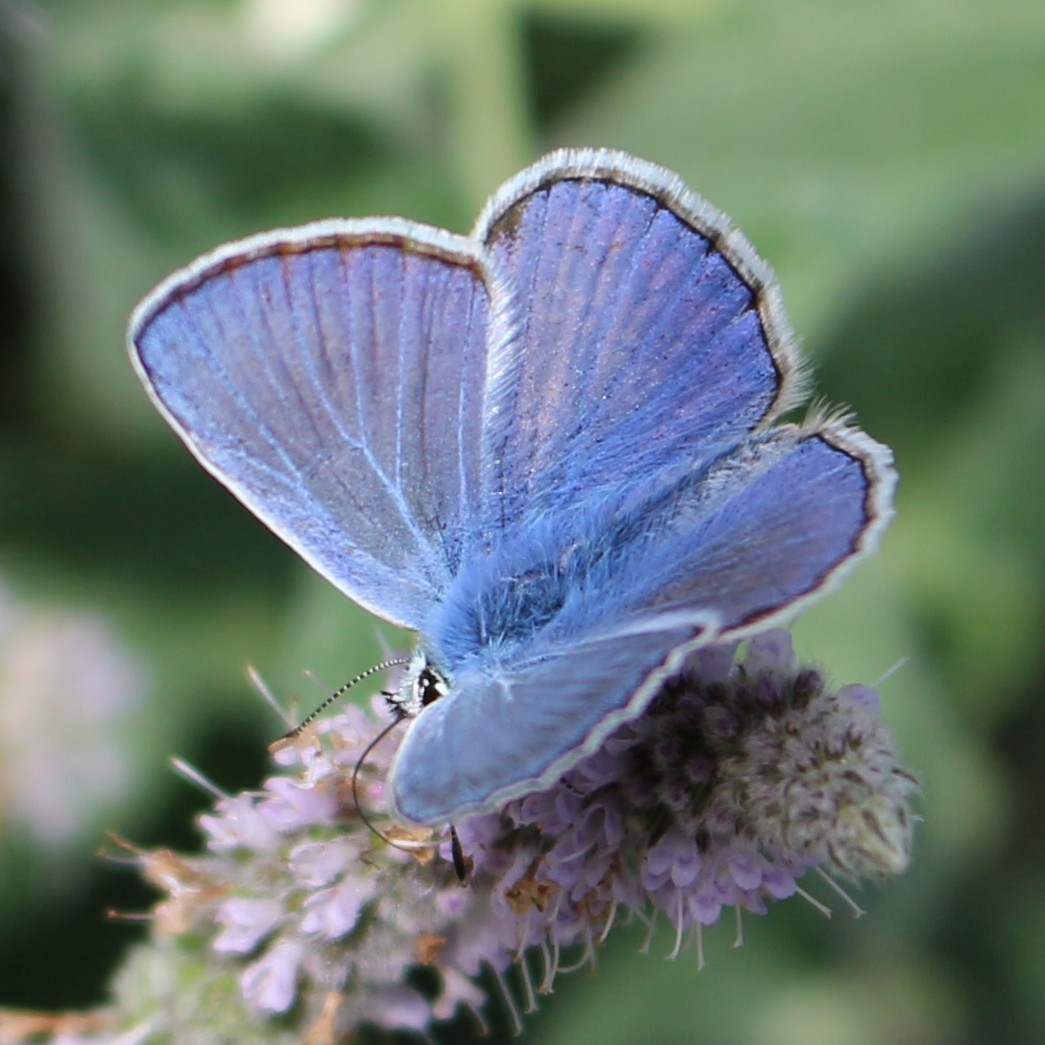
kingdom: Animalia
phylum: Arthropoda
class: Insecta
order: Lepidoptera
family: Lycaenidae
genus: Polyommatus
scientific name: Polyommatus icarus
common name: Common blue
